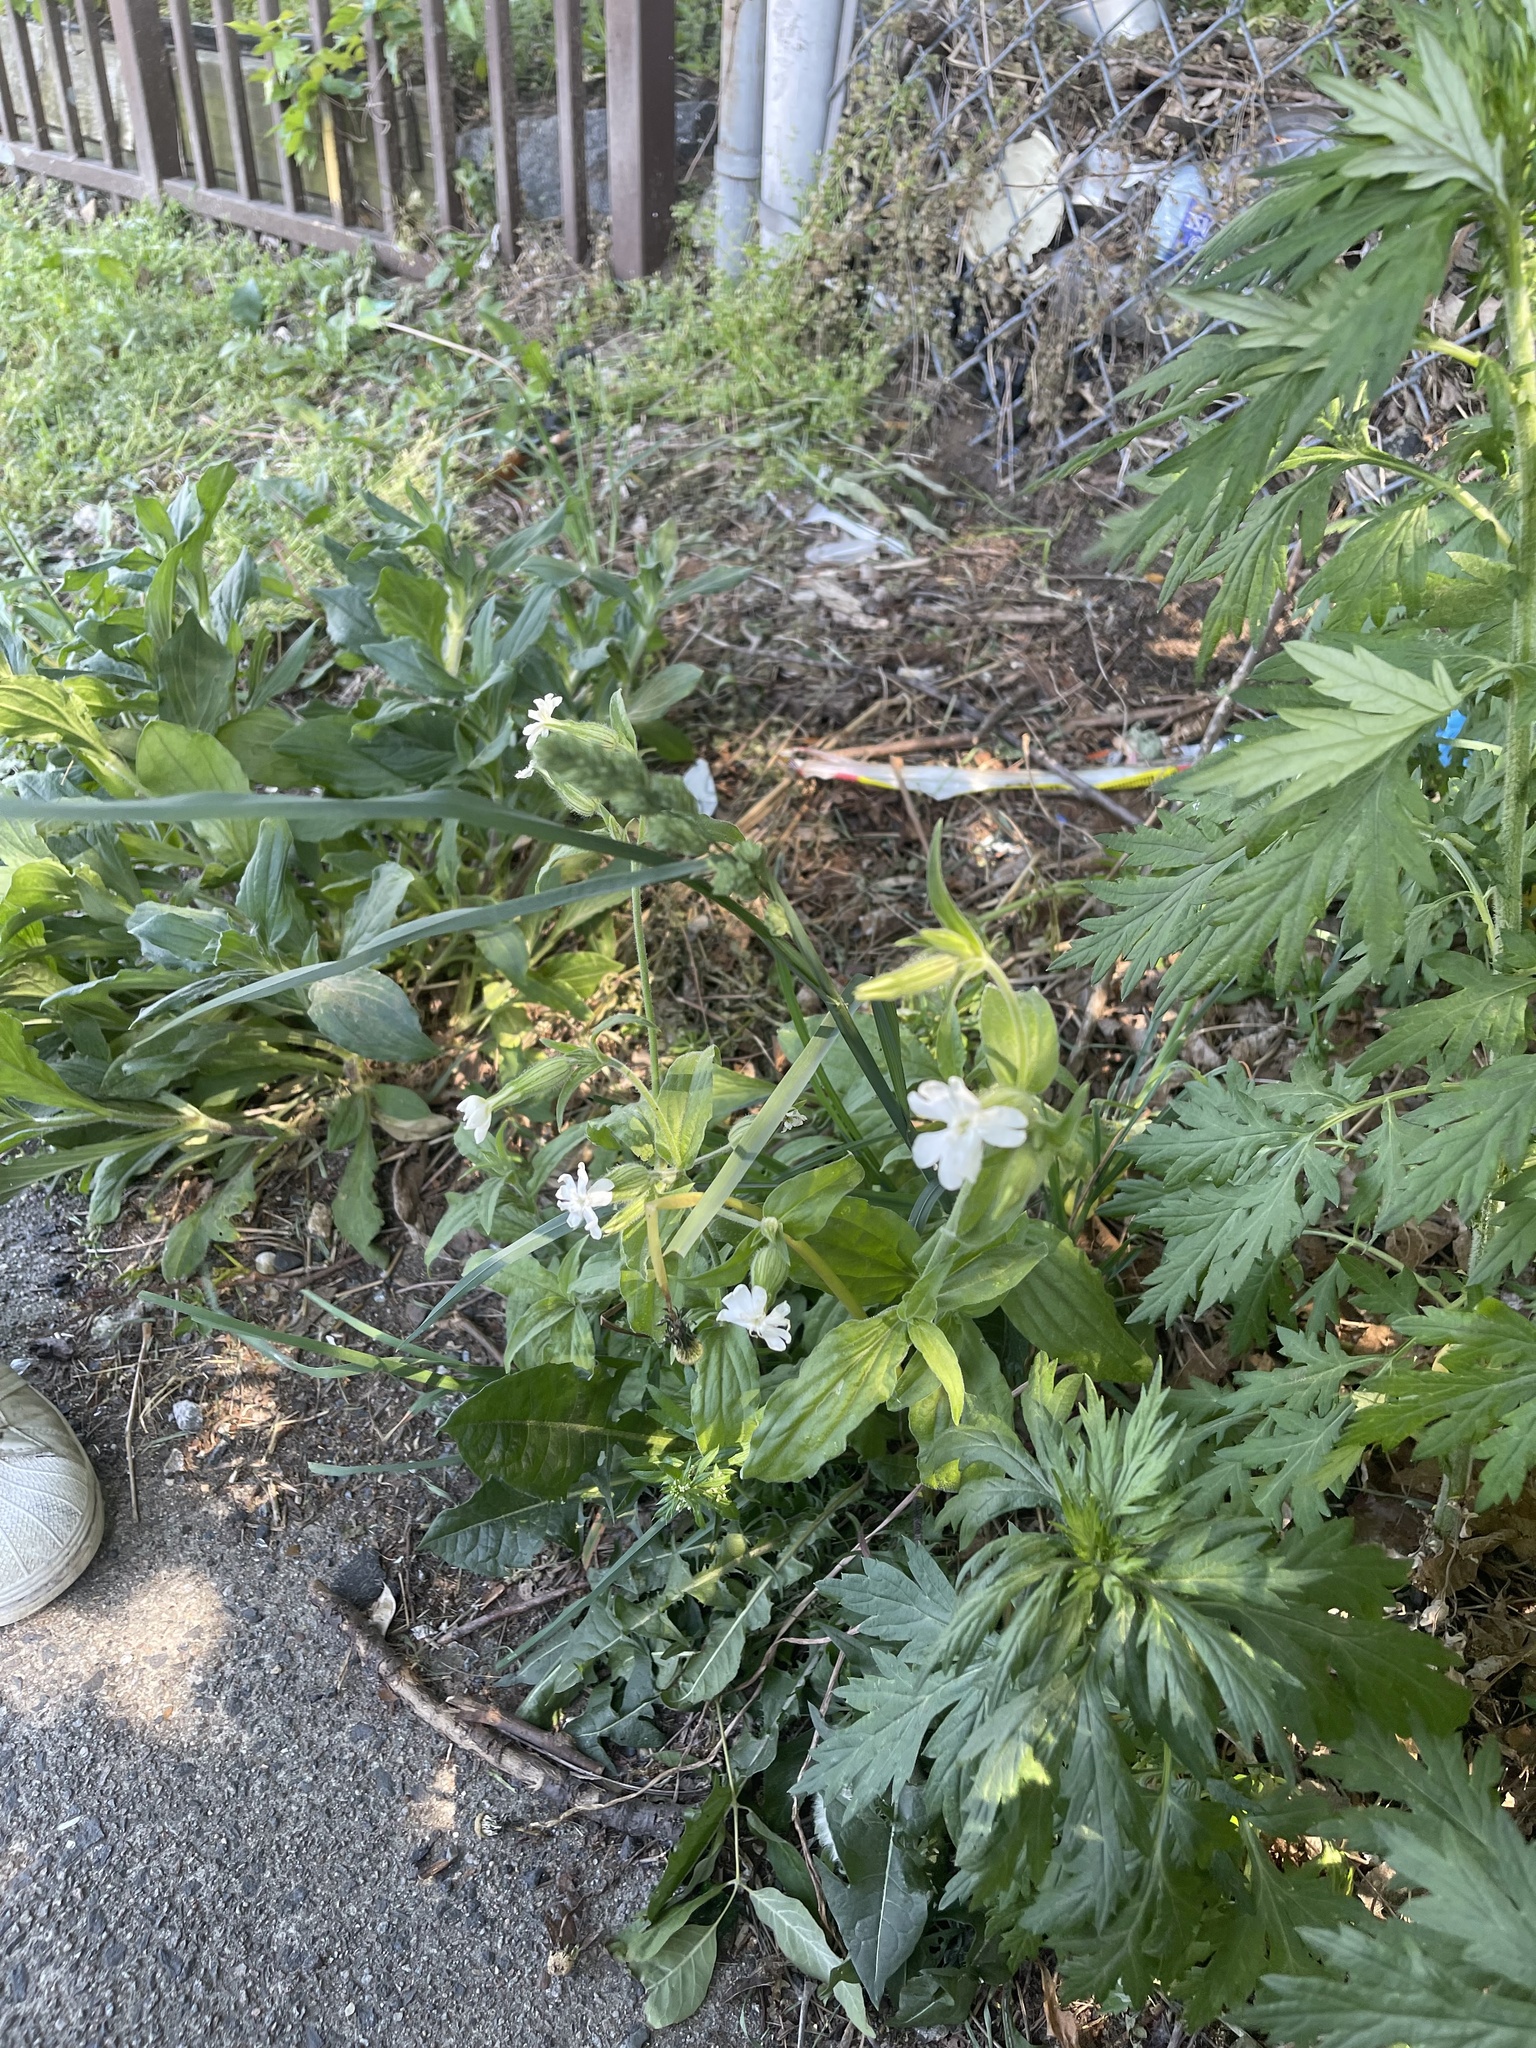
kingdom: Plantae
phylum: Tracheophyta
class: Magnoliopsida
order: Caryophyllales
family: Caryophyllaceae
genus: Silene
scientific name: Silene latifolia
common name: White campion
